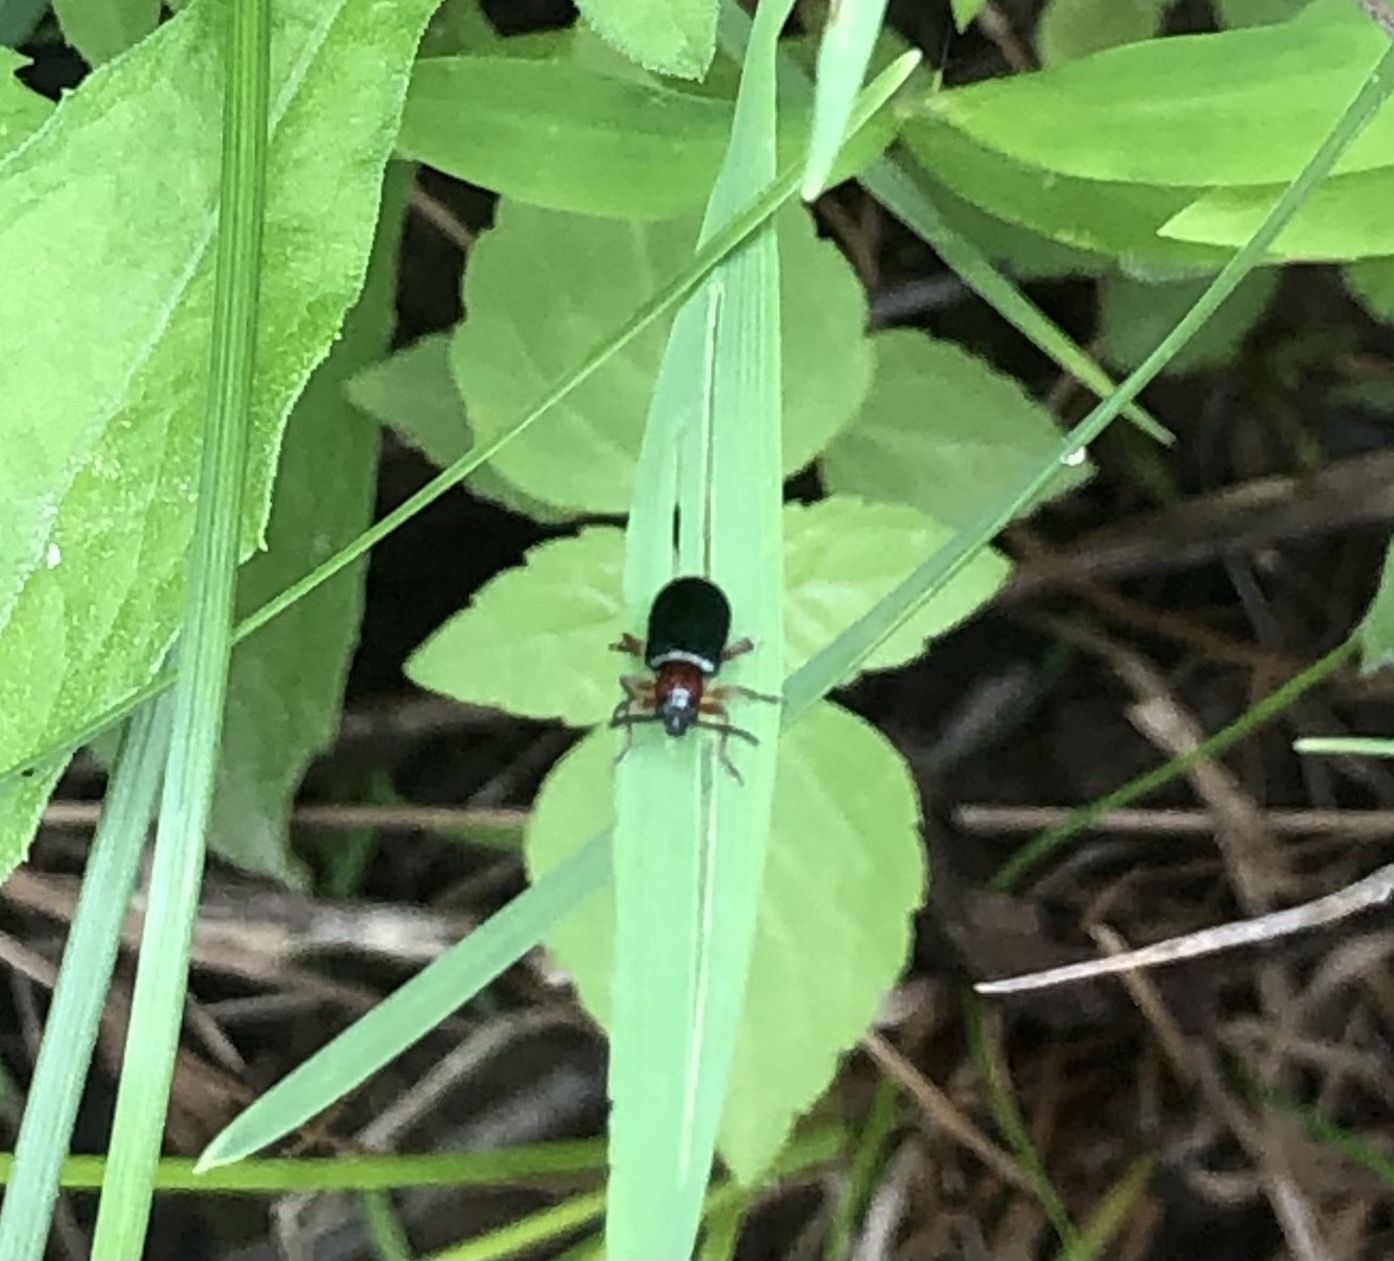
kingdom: Animalia
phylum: Arthropoda
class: Insecta
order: Coleoptera
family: Chrysomelidae
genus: Oulema
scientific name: Oulema melanopus
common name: Cereal leaf beetle
